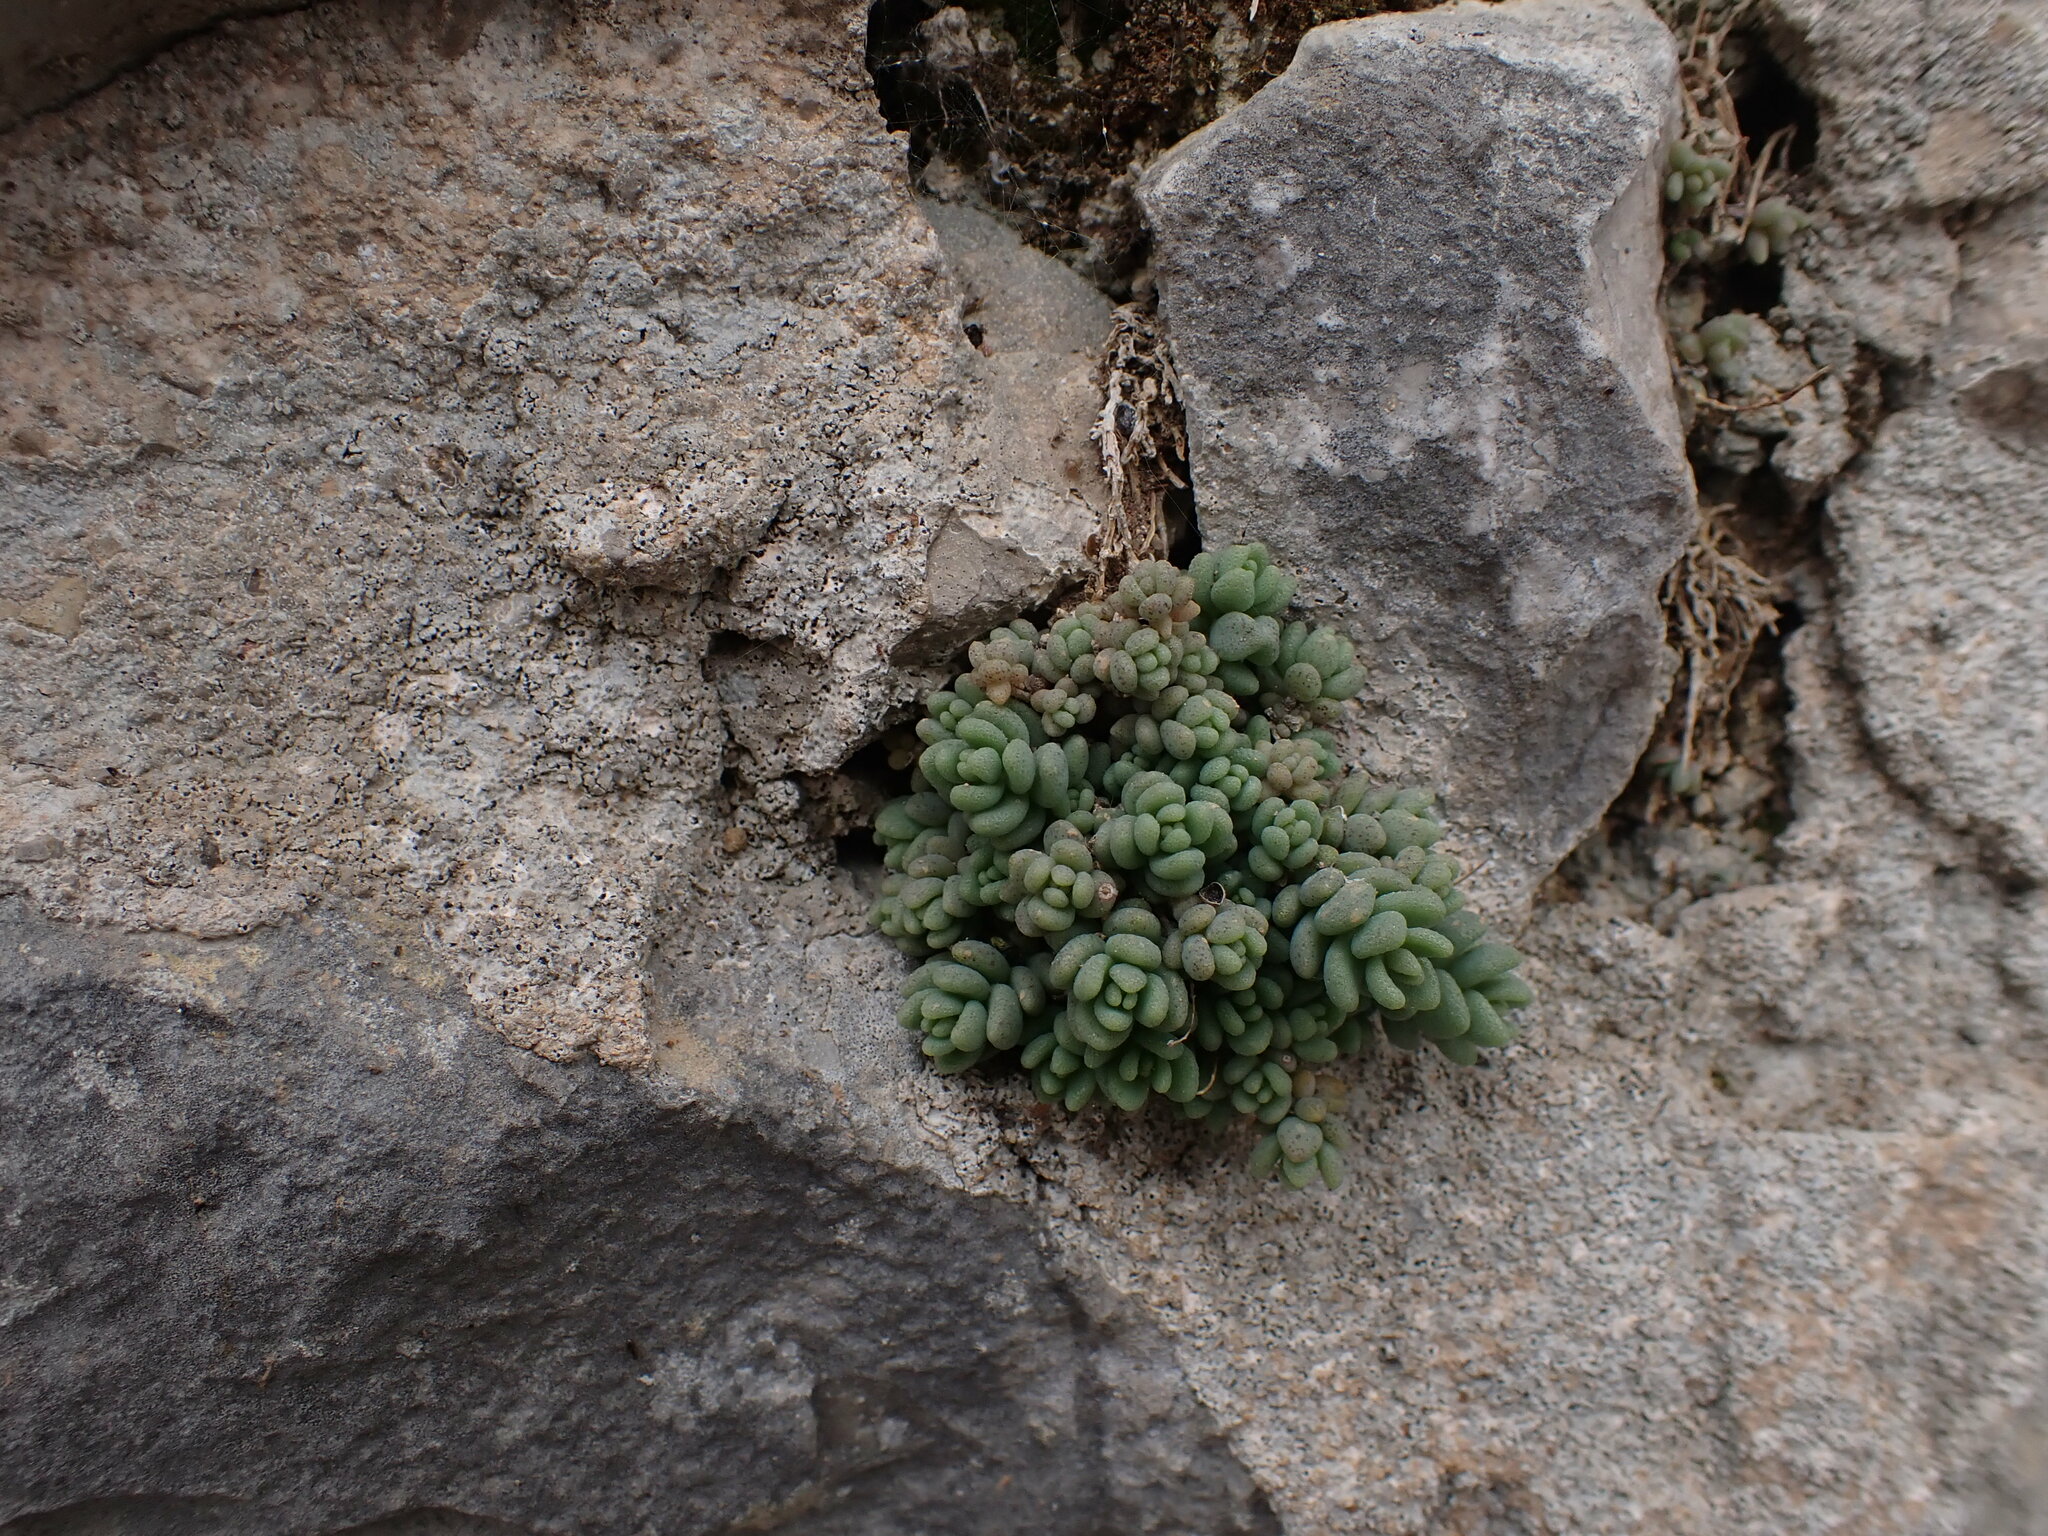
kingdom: Plantae
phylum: Tracheophyta
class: Magnoliopsida
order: Saxifragales
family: Crassulaceae
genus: Sedum
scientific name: Sedum dasyphyllum
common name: Thick-leaf stonecrop
